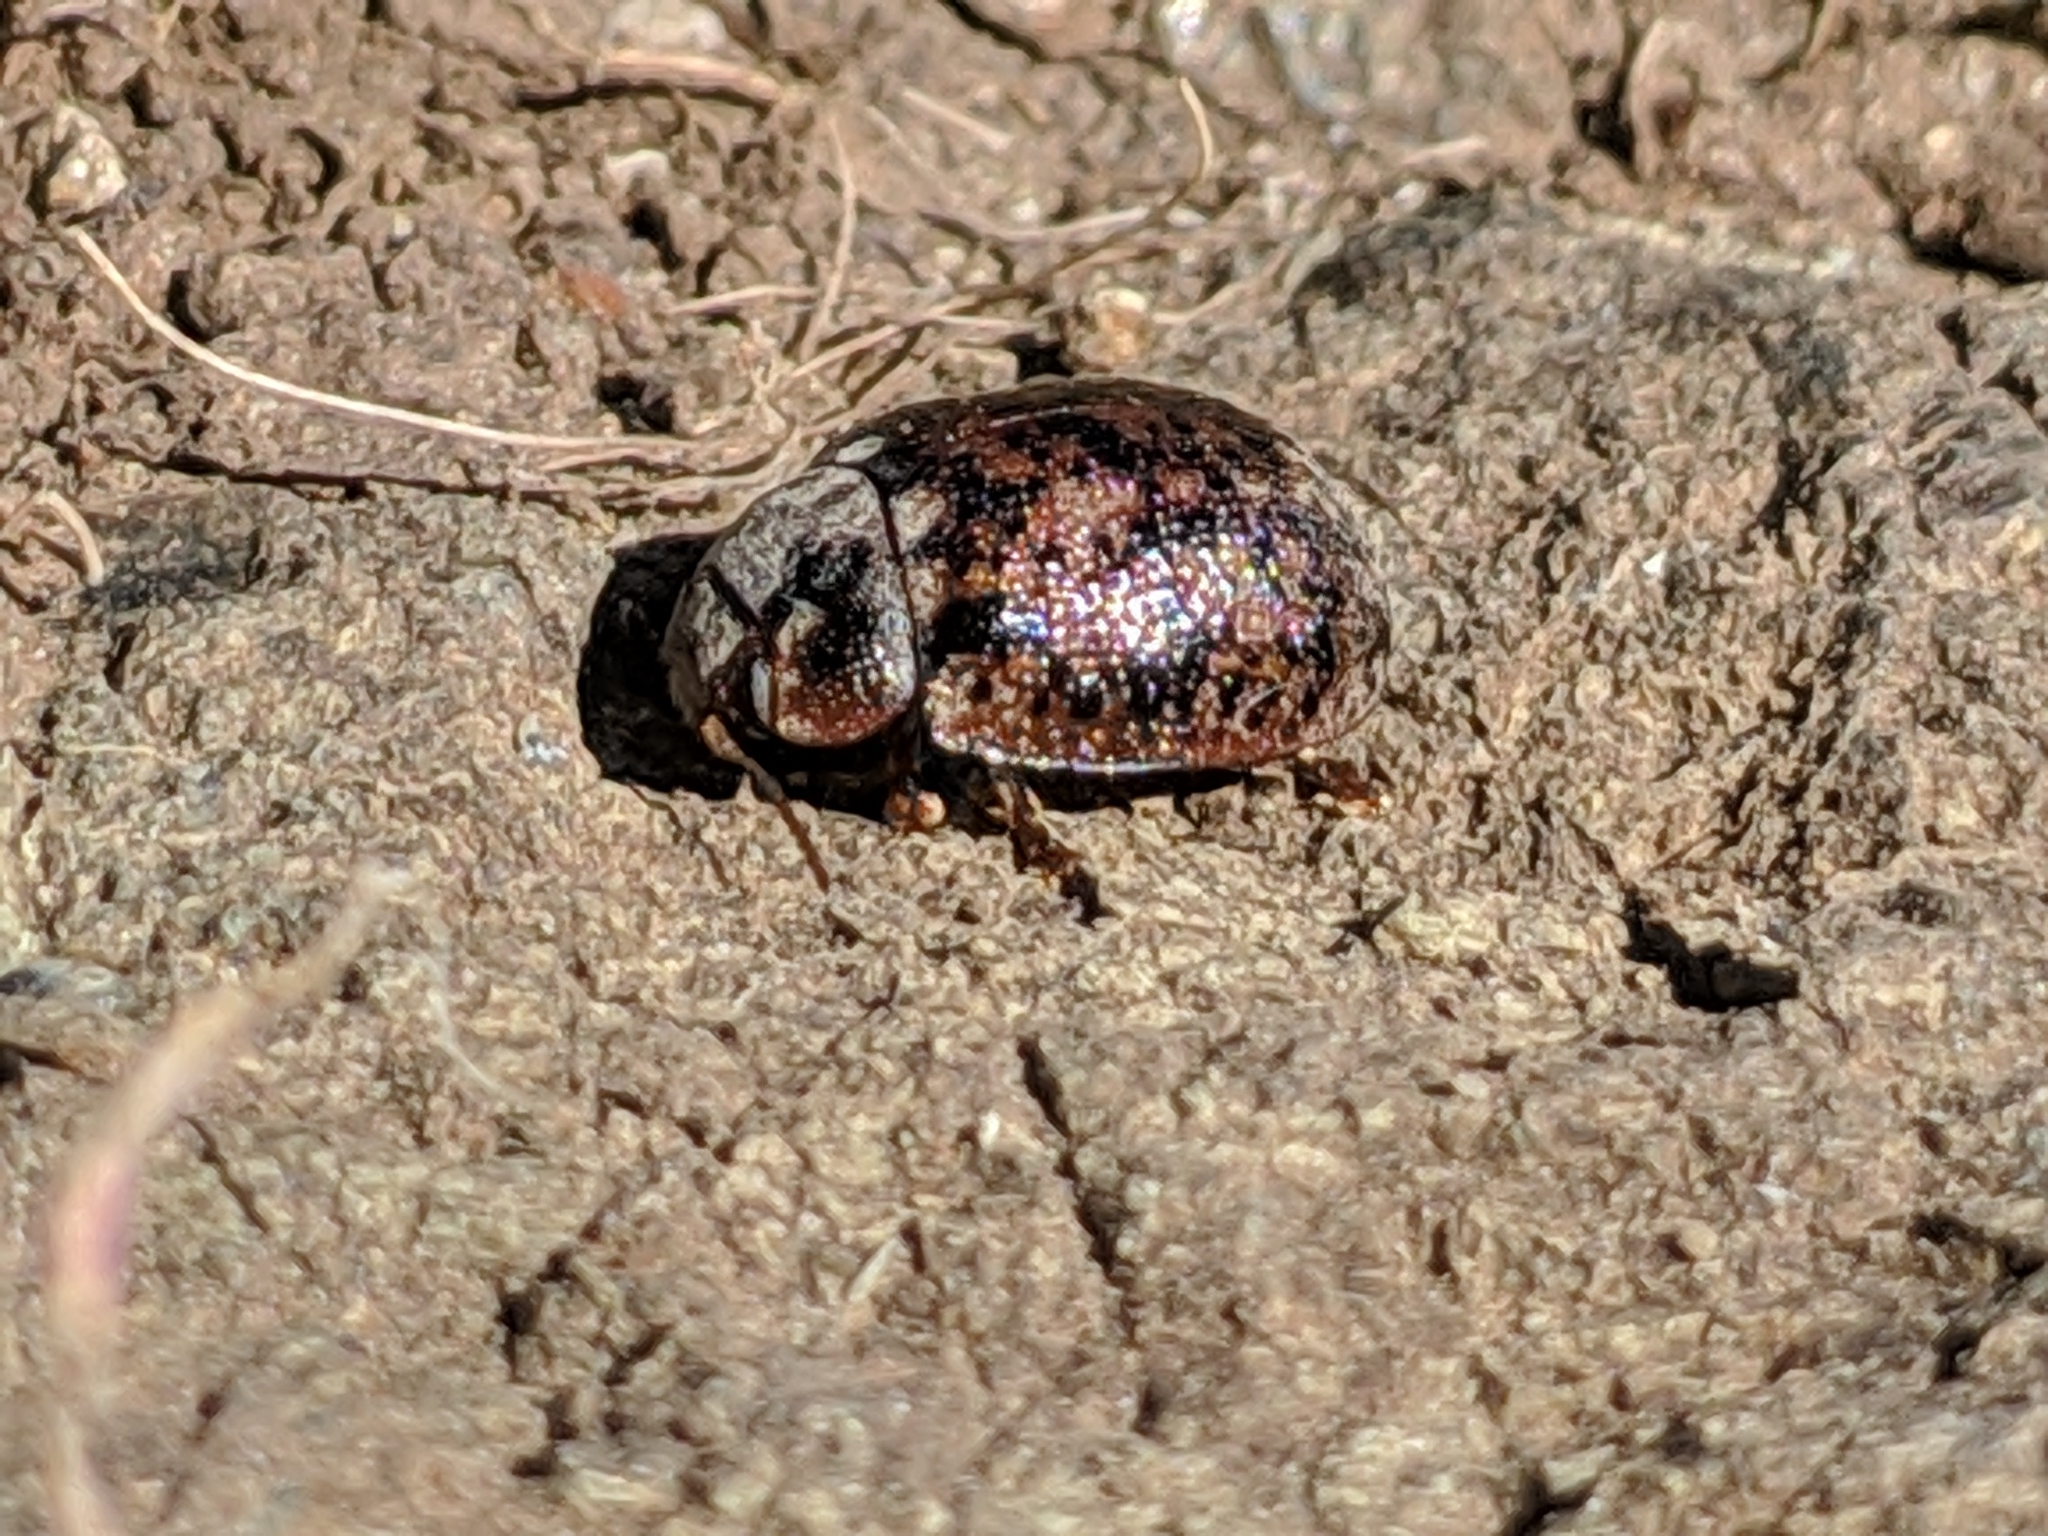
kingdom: Animalia
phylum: Arthropoda
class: Insecta
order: Coleoptera
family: Chrysomelidae
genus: Trachymela
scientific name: Trachymela sloanei
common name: Australian tortoise beetle
